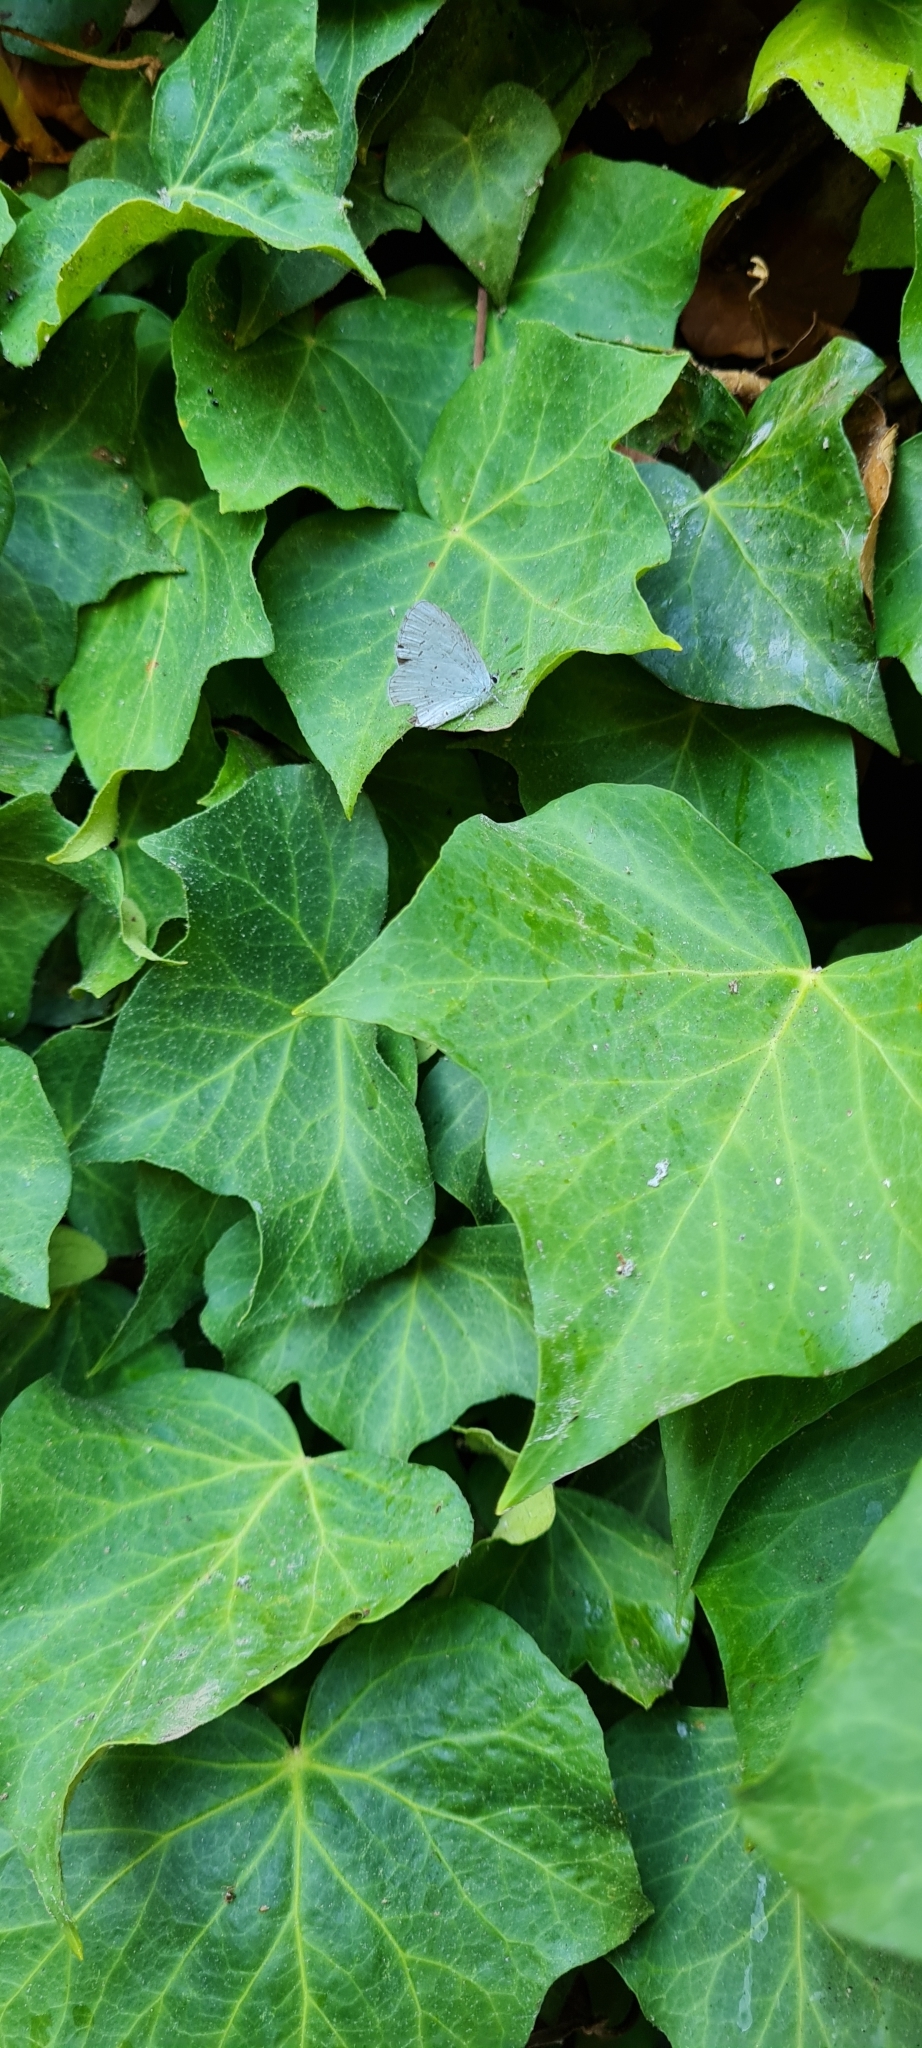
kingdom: Animalia
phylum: Arthropoda
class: Insecta
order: Lepidoptera
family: Lycaenidae
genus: Celastrina
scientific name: Celastrina argiolus
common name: Holly blue
